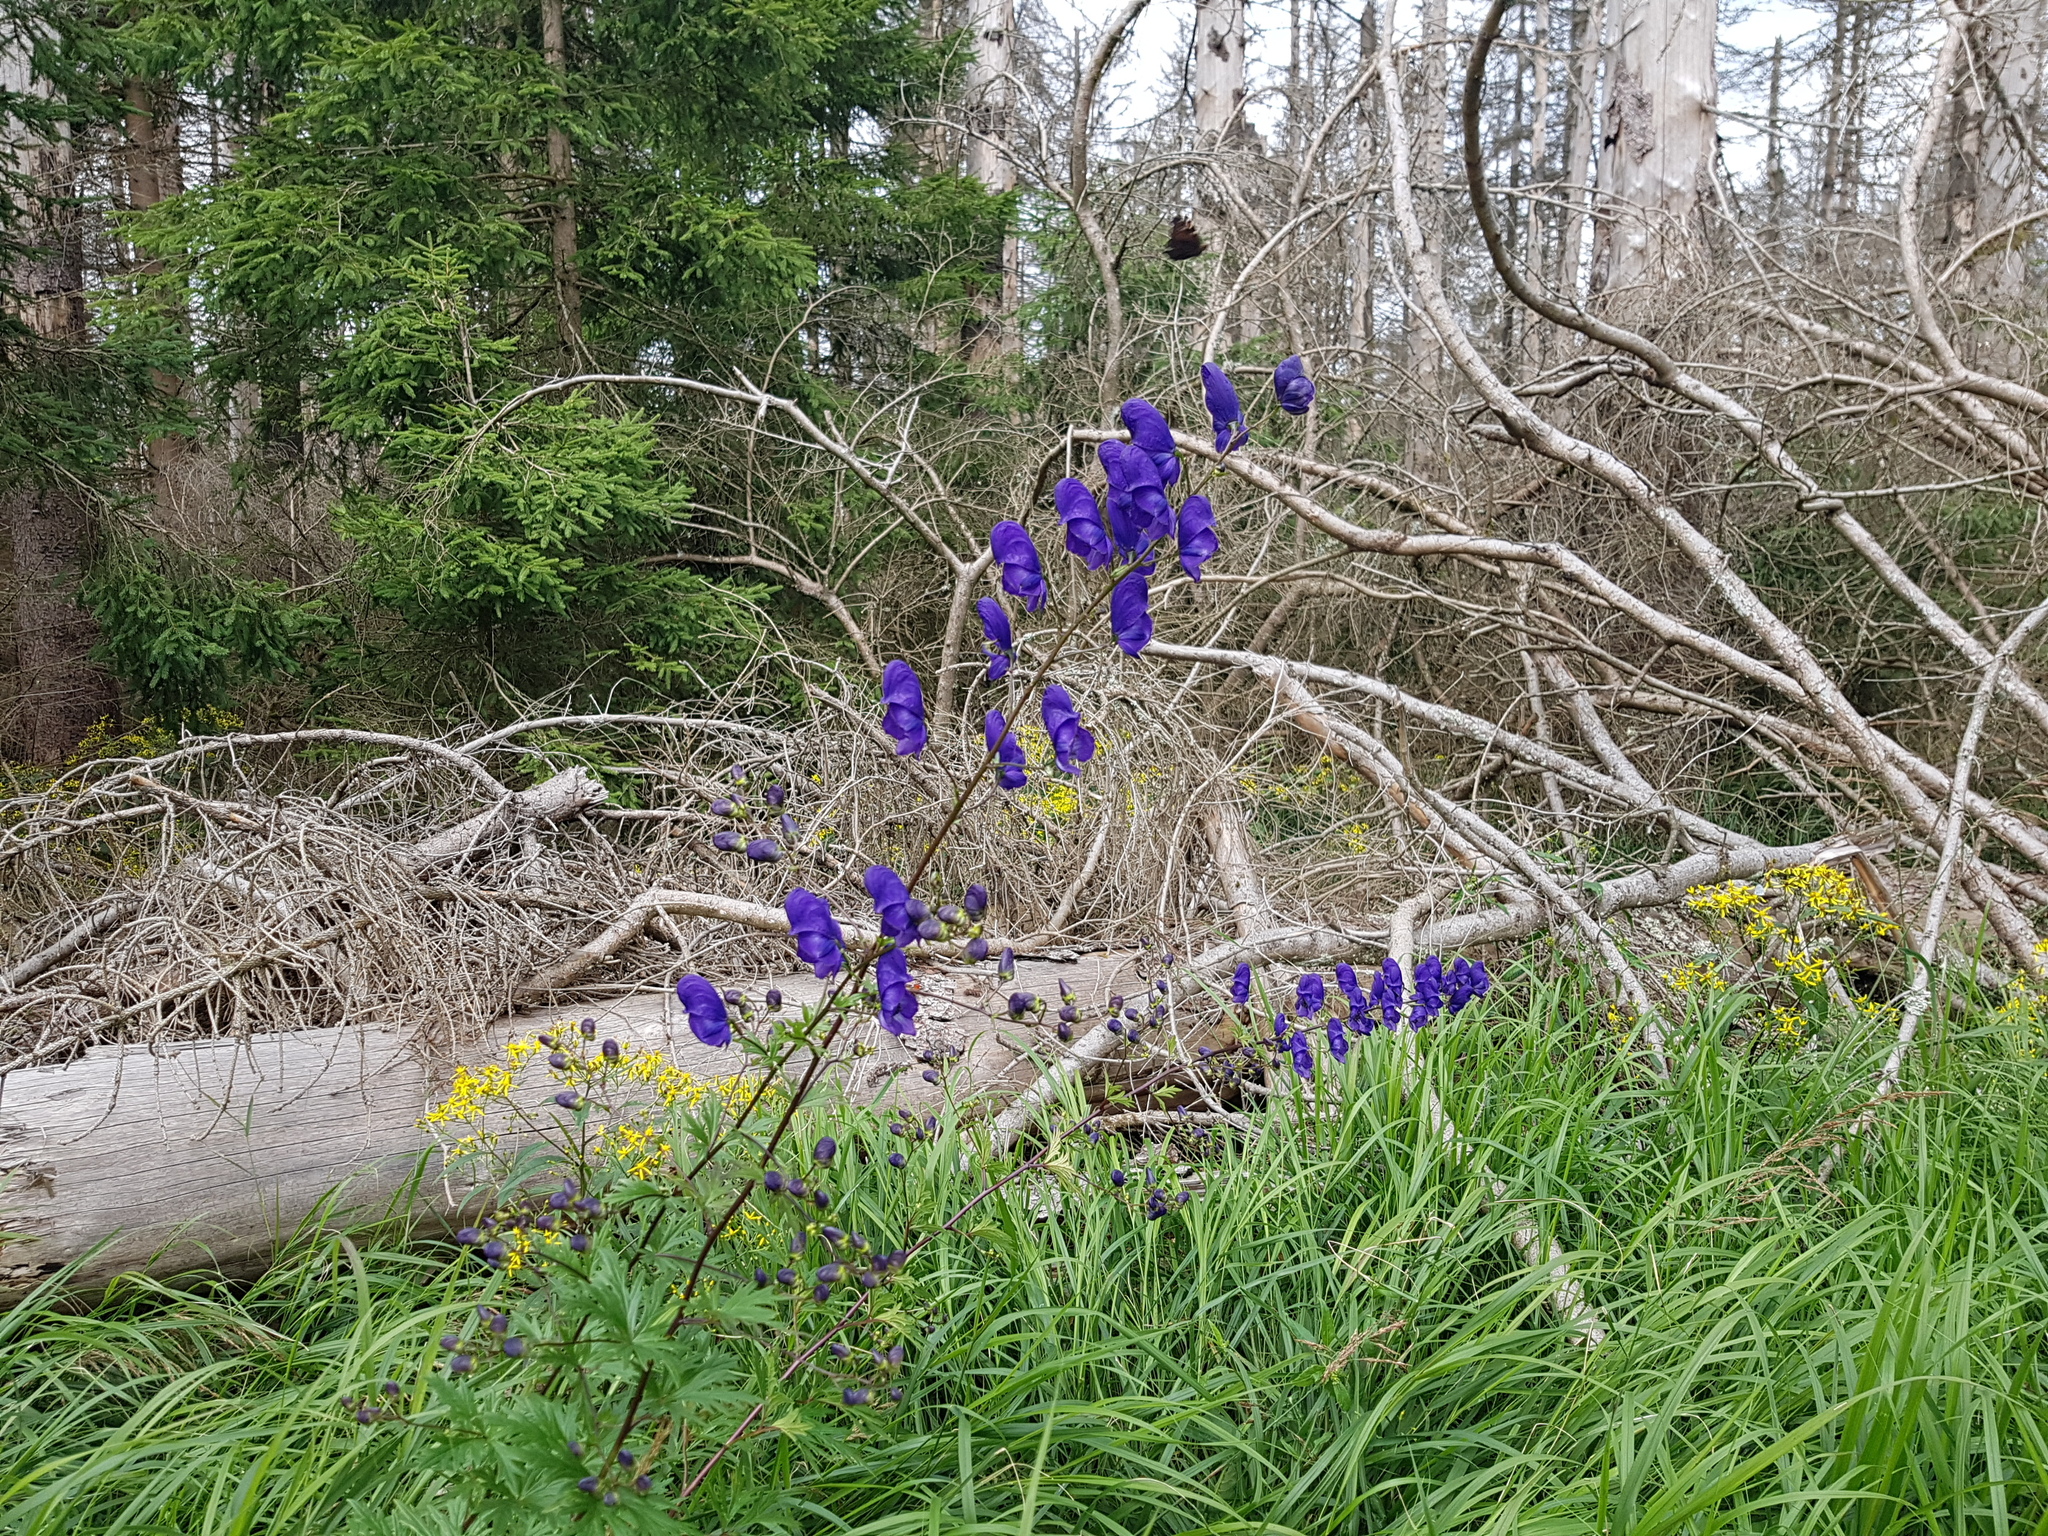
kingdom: Plantae
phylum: Tracheophyta
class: Magnoliopsida
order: Ranunculales
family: Ranunculaceae
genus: Aconitum
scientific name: Aconitum variegatum
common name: Manchurian monkshood
